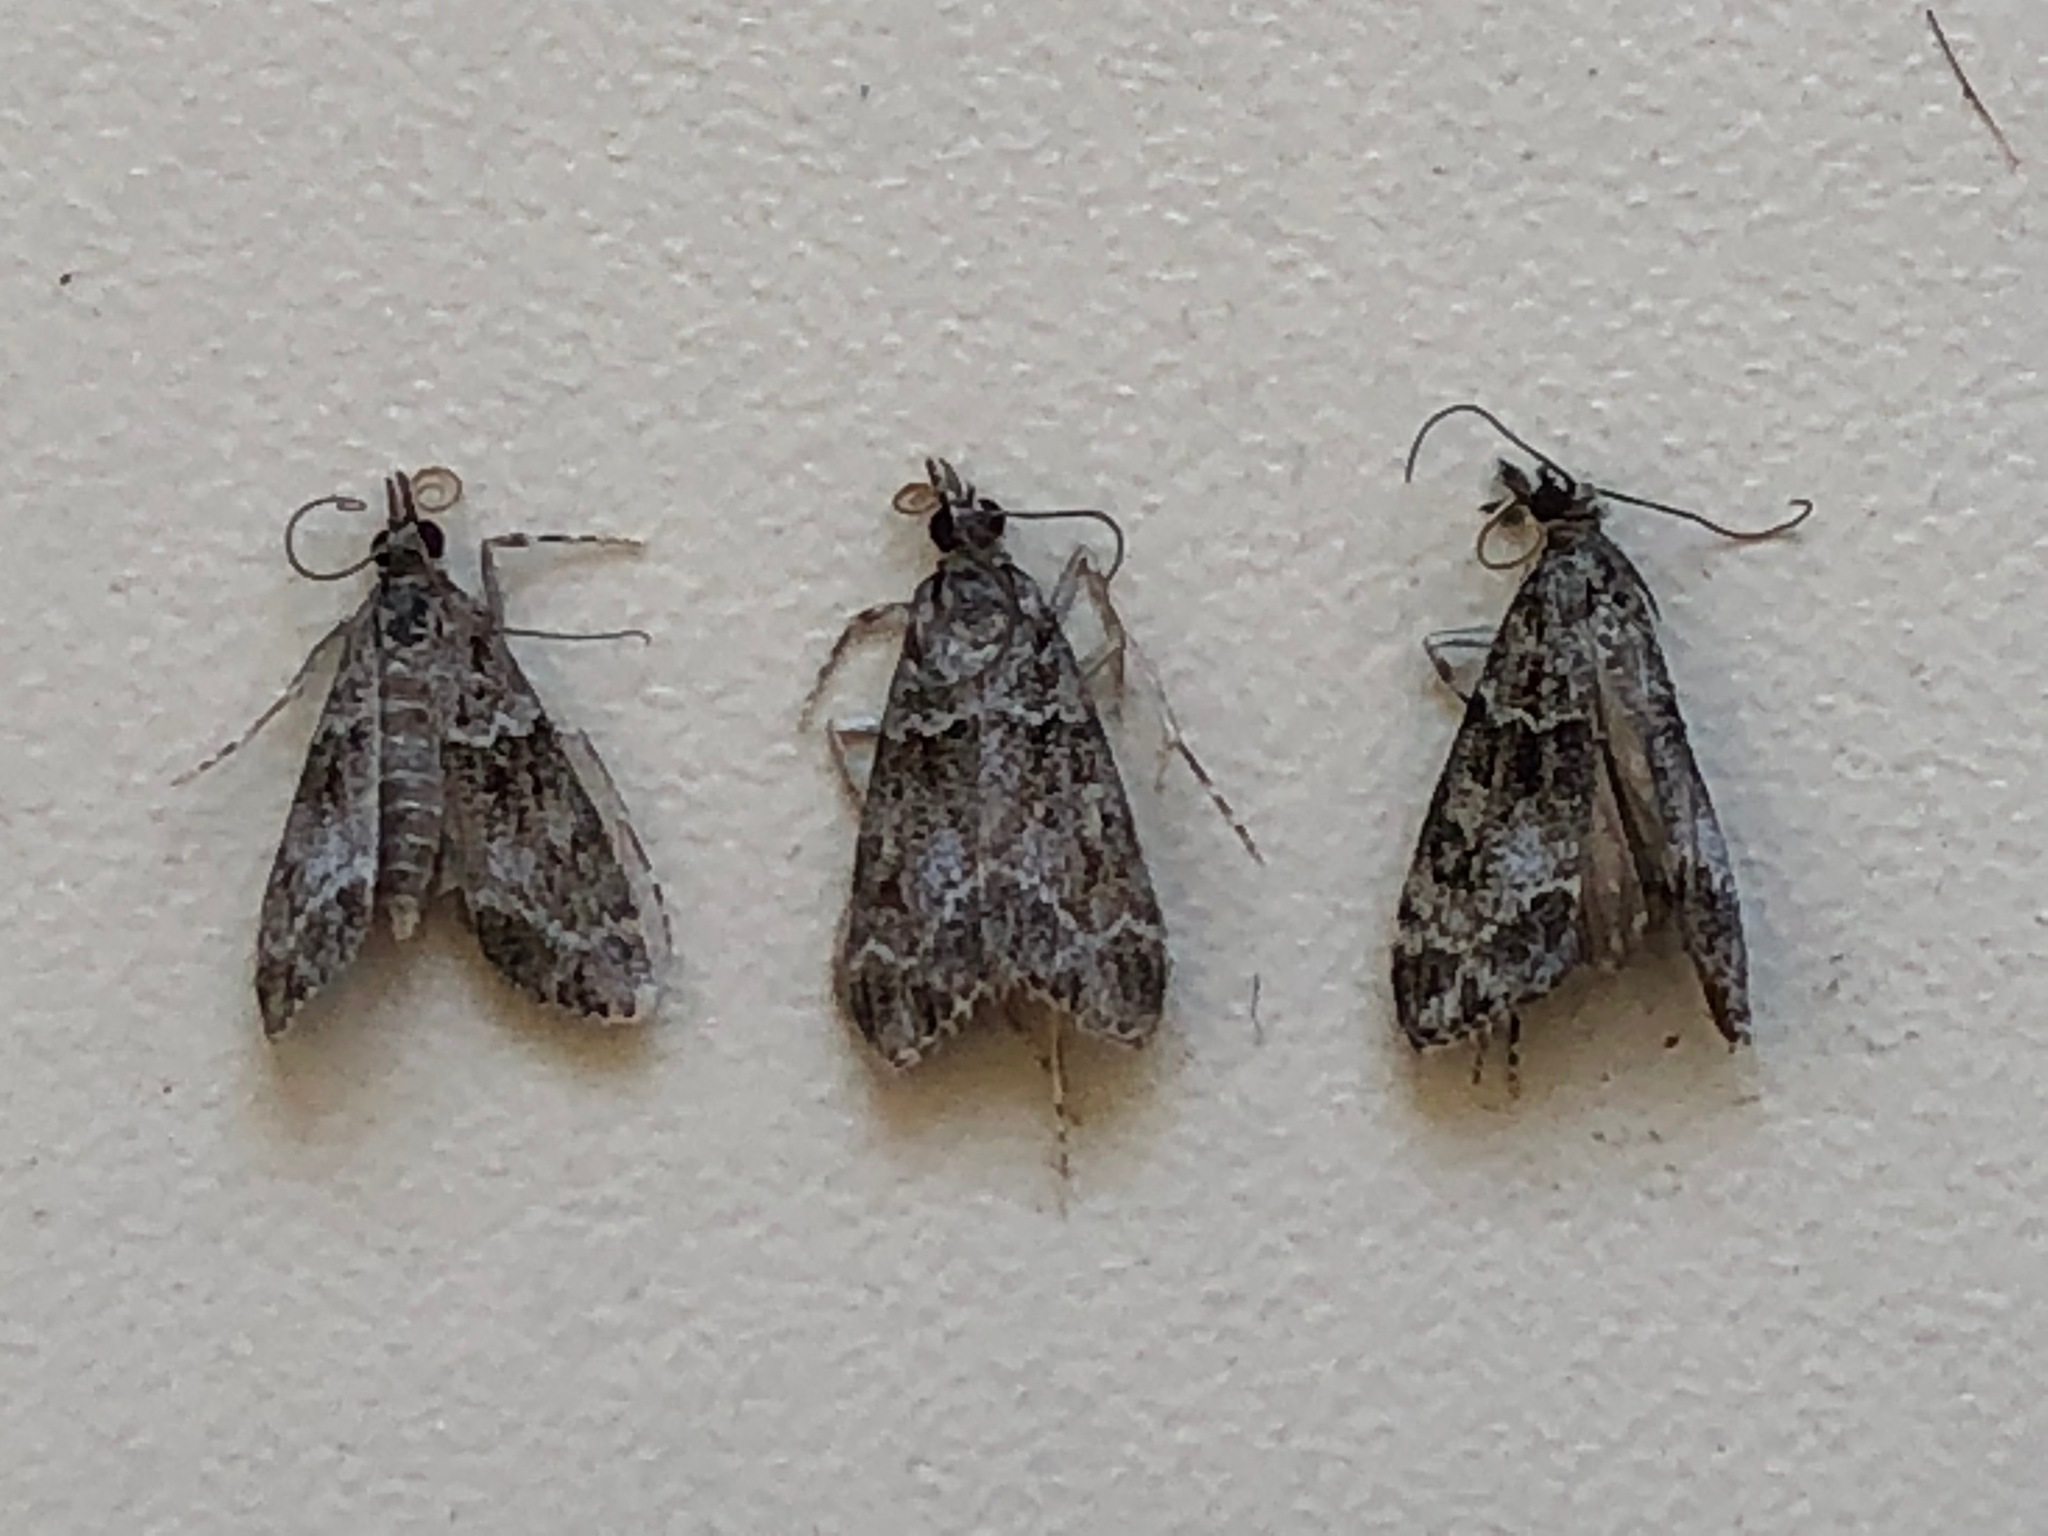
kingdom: Animalia
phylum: Arthropoda
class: Insecta
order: Lepidoptera
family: Crambidae
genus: Eudonia
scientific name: Eudonia mercurella
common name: Small grey
